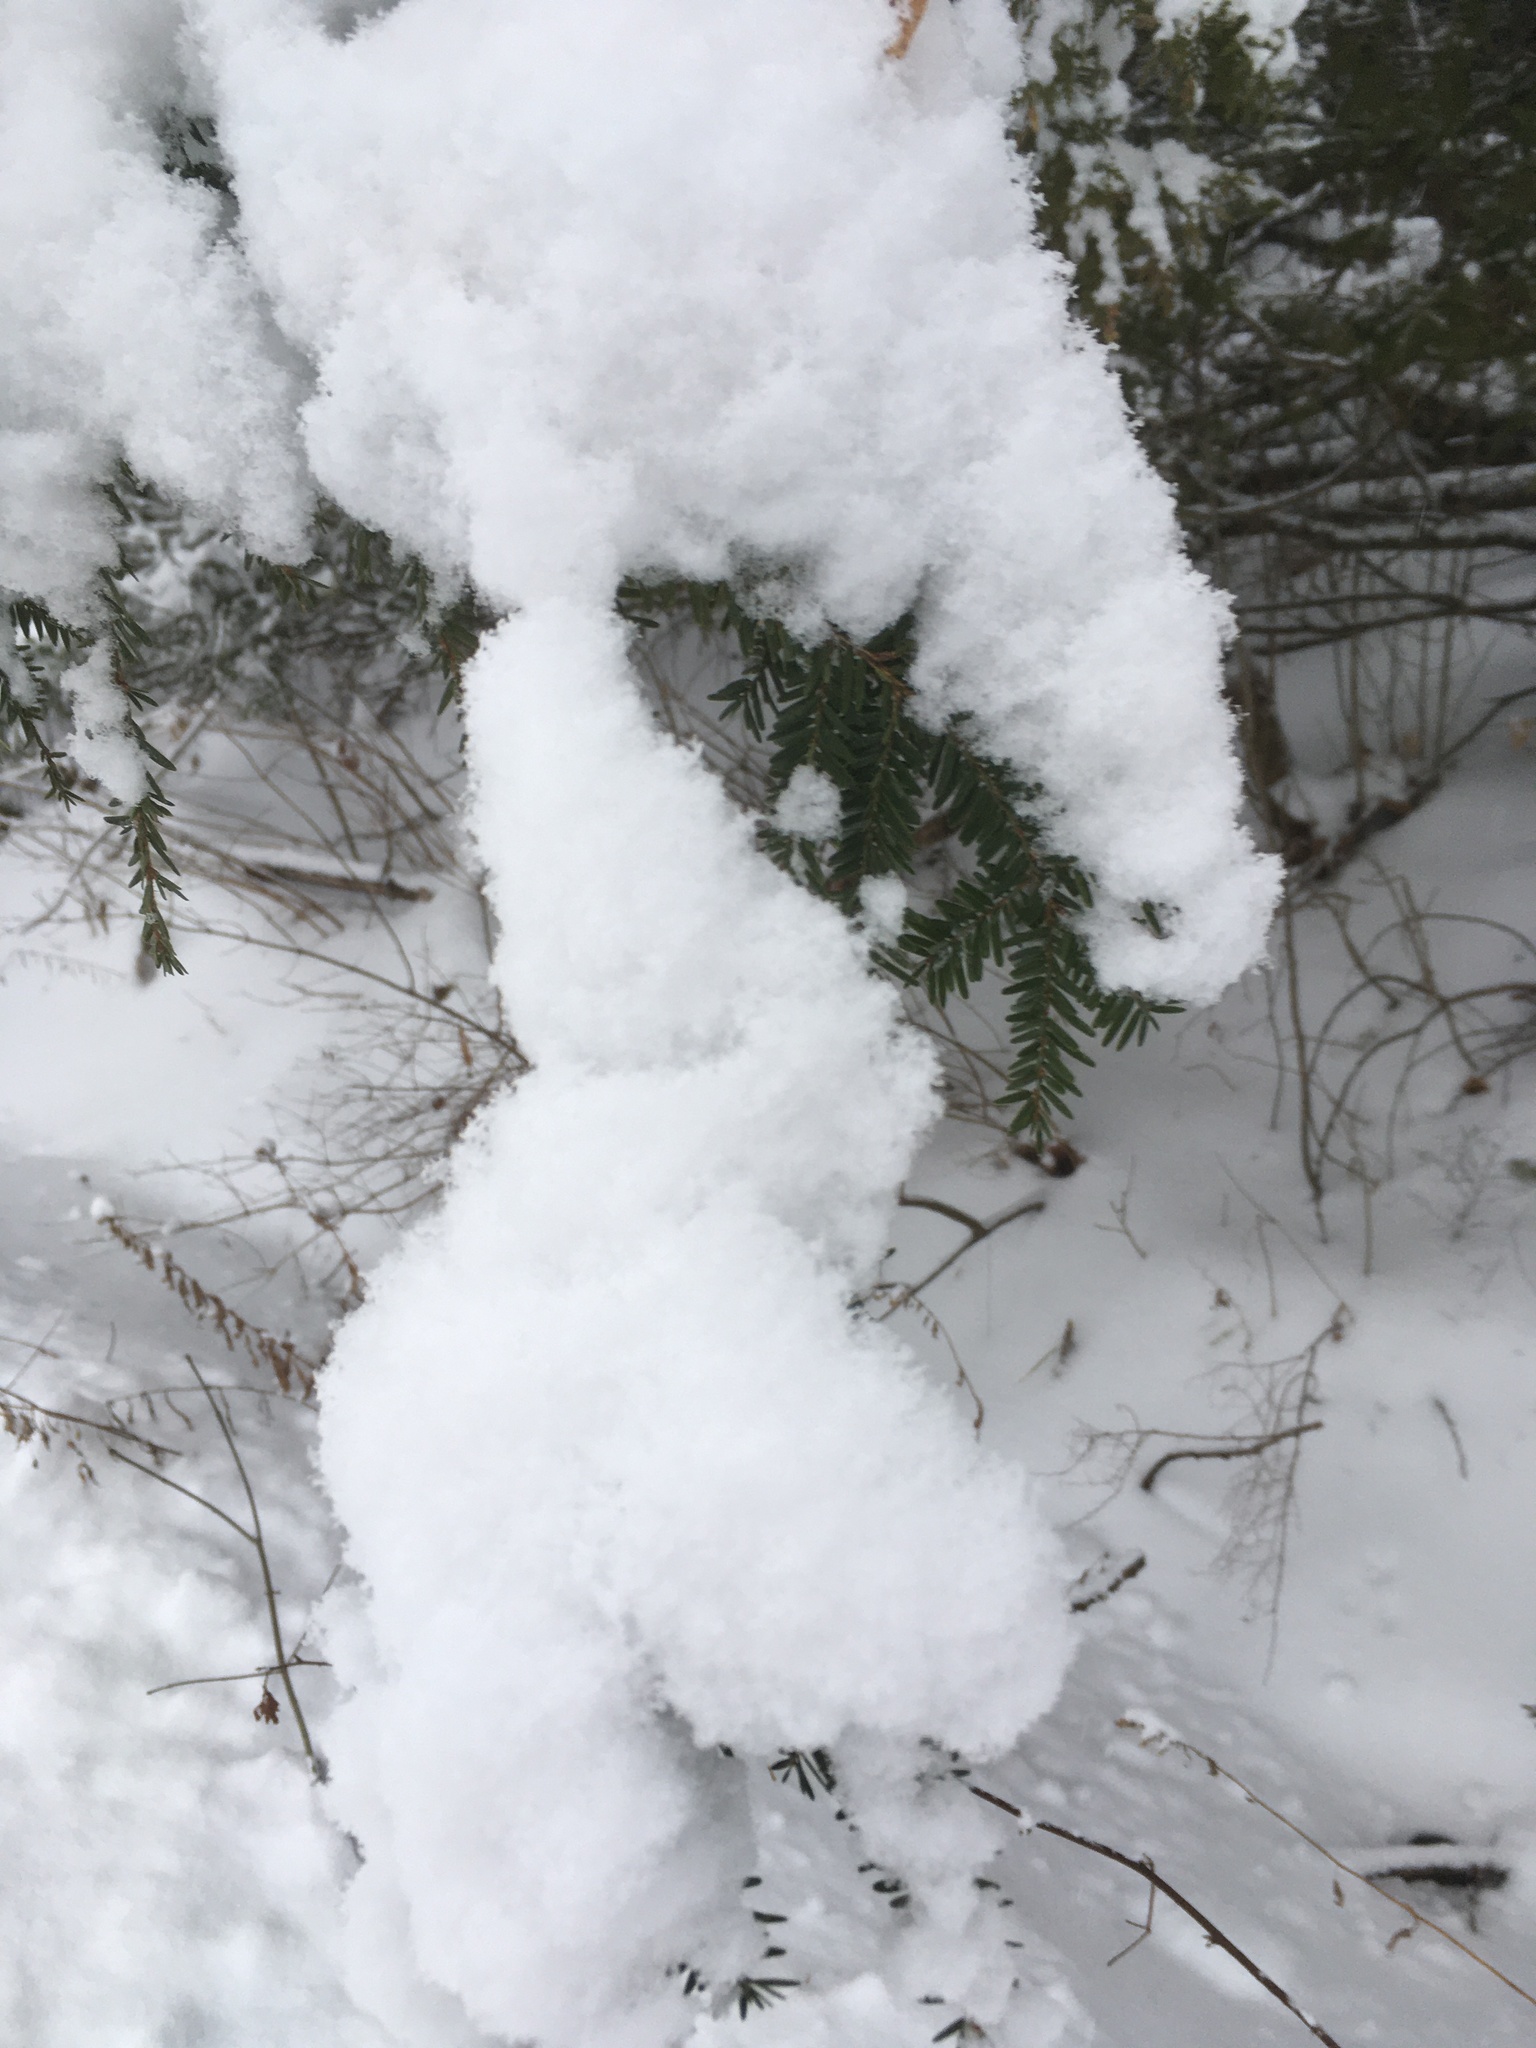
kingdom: Plantae
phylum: Tracheophyta
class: Pinopsida
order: Pinales
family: Pinaceae
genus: Tsuga
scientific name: Tsuga canadensis
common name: Eastern hemlock
